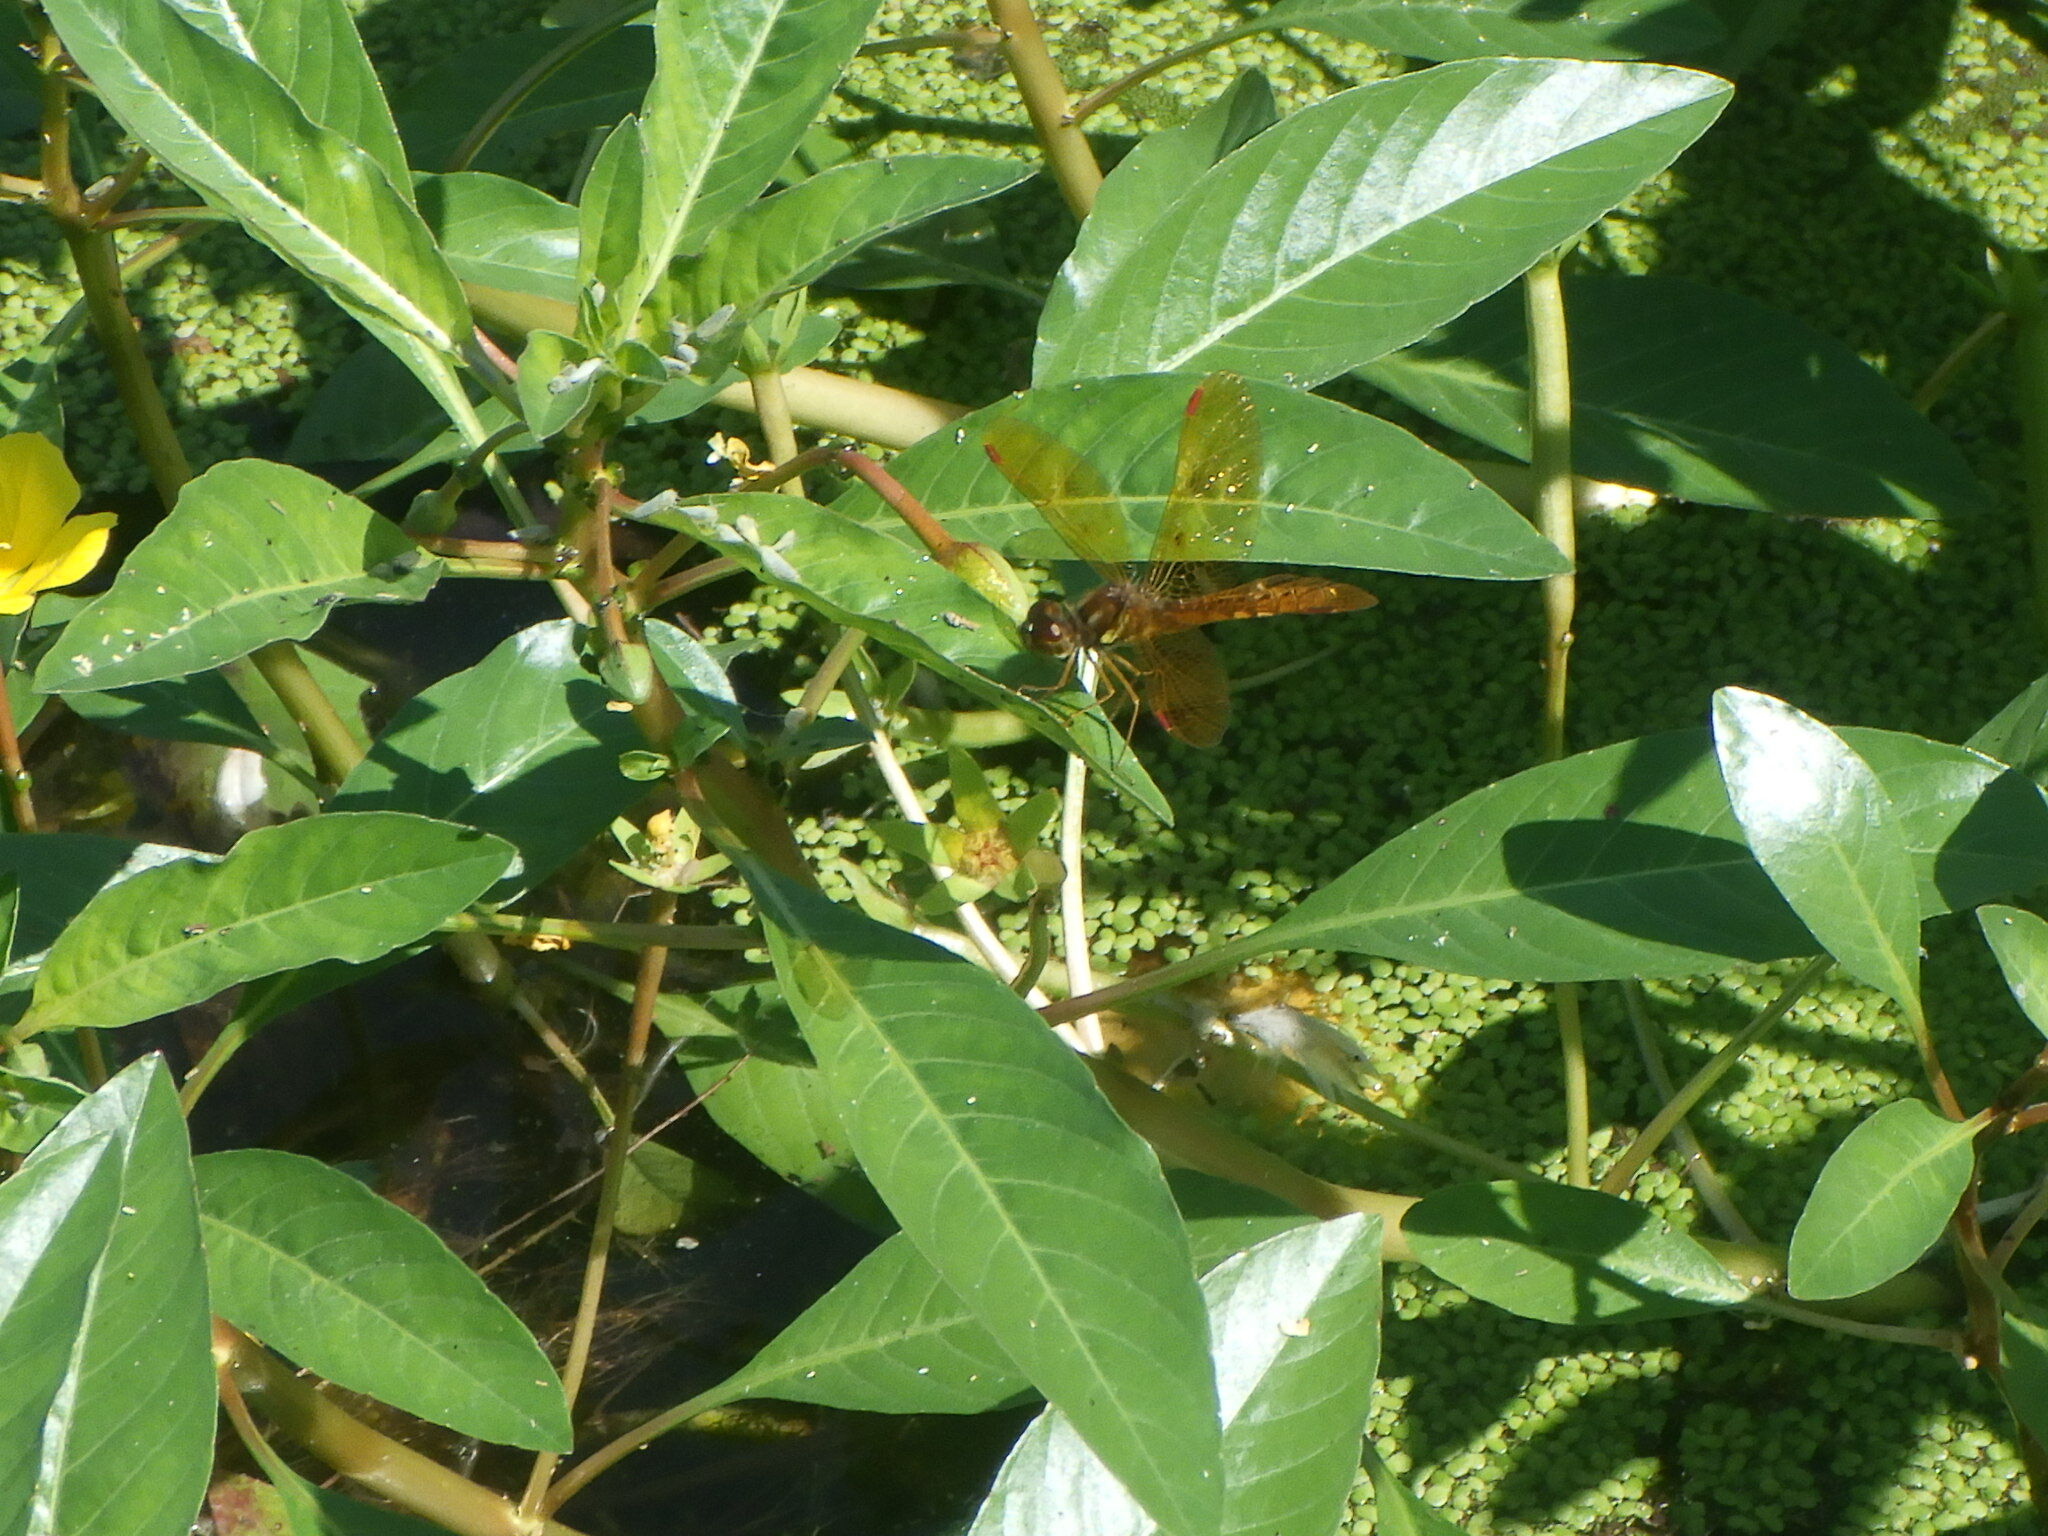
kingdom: Animalia
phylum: Arthropoda
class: Insecta
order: Odonata
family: Libellulidae
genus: Perithemis
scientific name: Perithemis tenera
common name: Eastern amberwing
